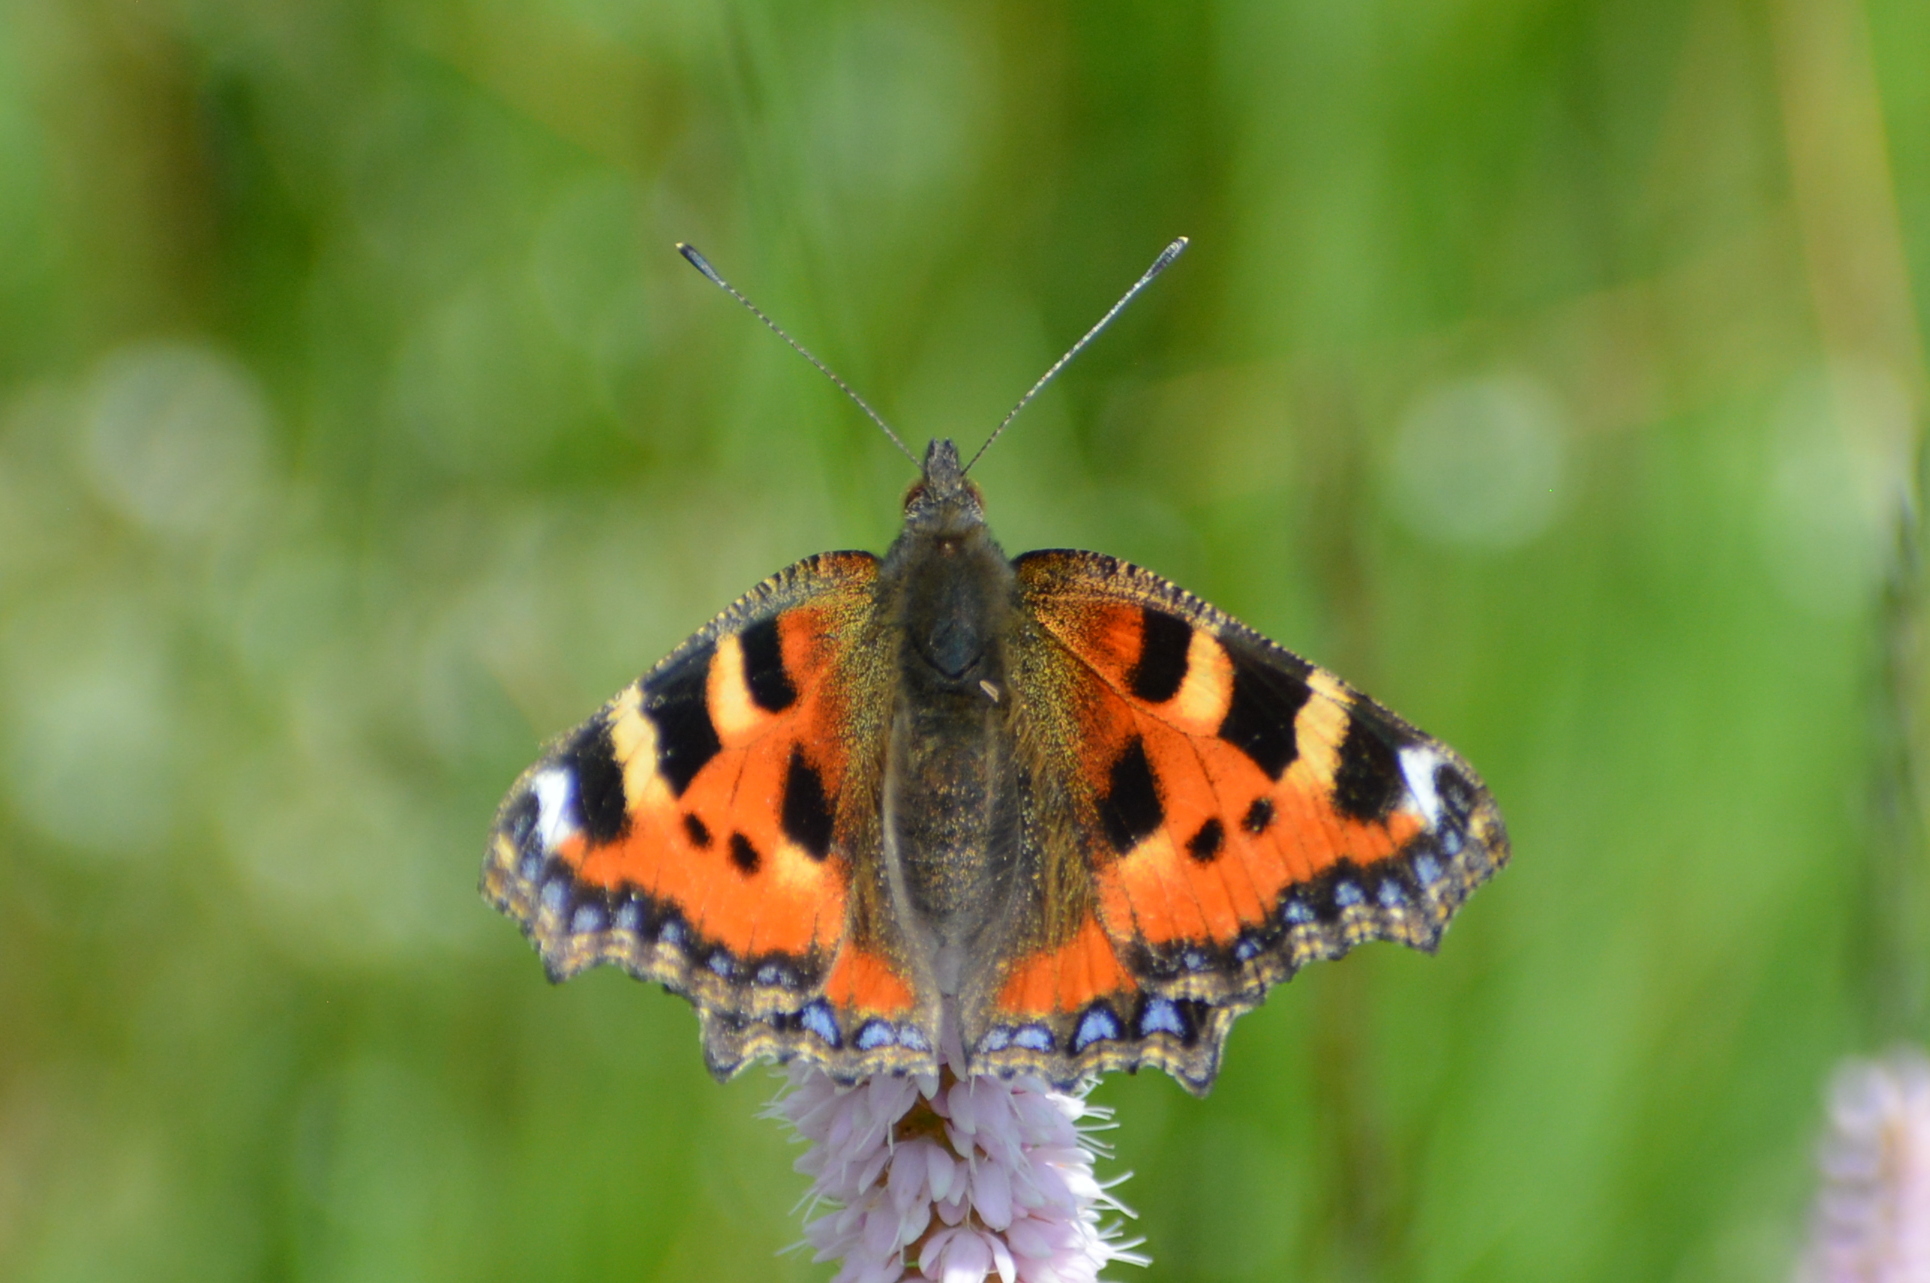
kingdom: Animalia
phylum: Arthropoda
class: Insecta
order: Lepidoptera
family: Nymphalidae
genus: Aglais
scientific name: Aglais urticae
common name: Small tortoiseshell
